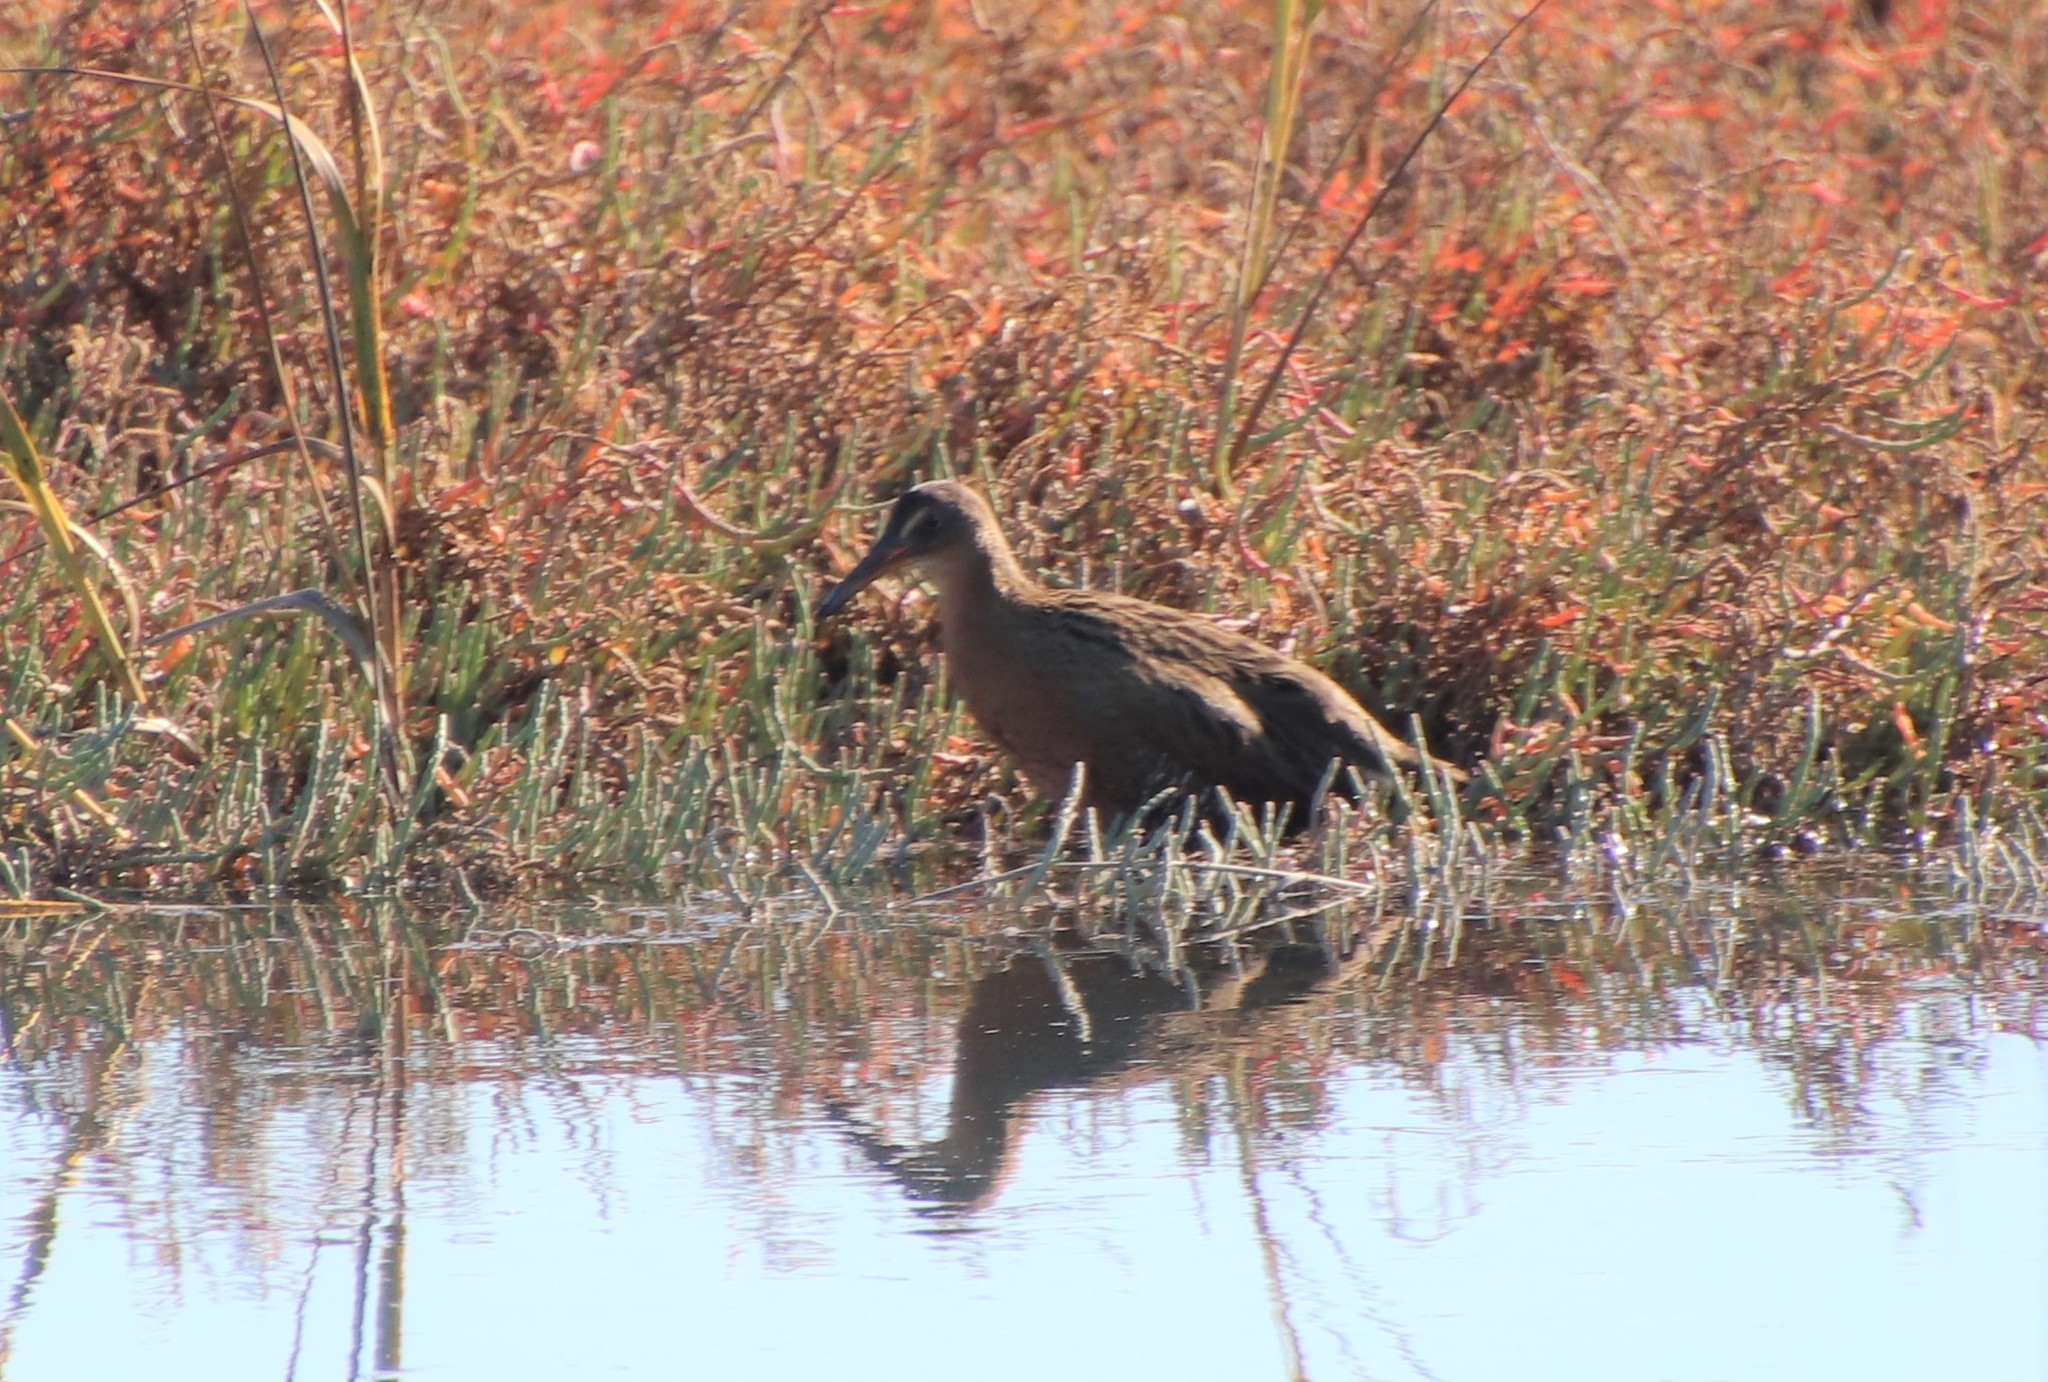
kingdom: Animalia
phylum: Chordata
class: Aves
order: Gruiformes
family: Rallidae
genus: Rallus
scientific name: Rallus obsoletus
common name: Ridgway's rail
